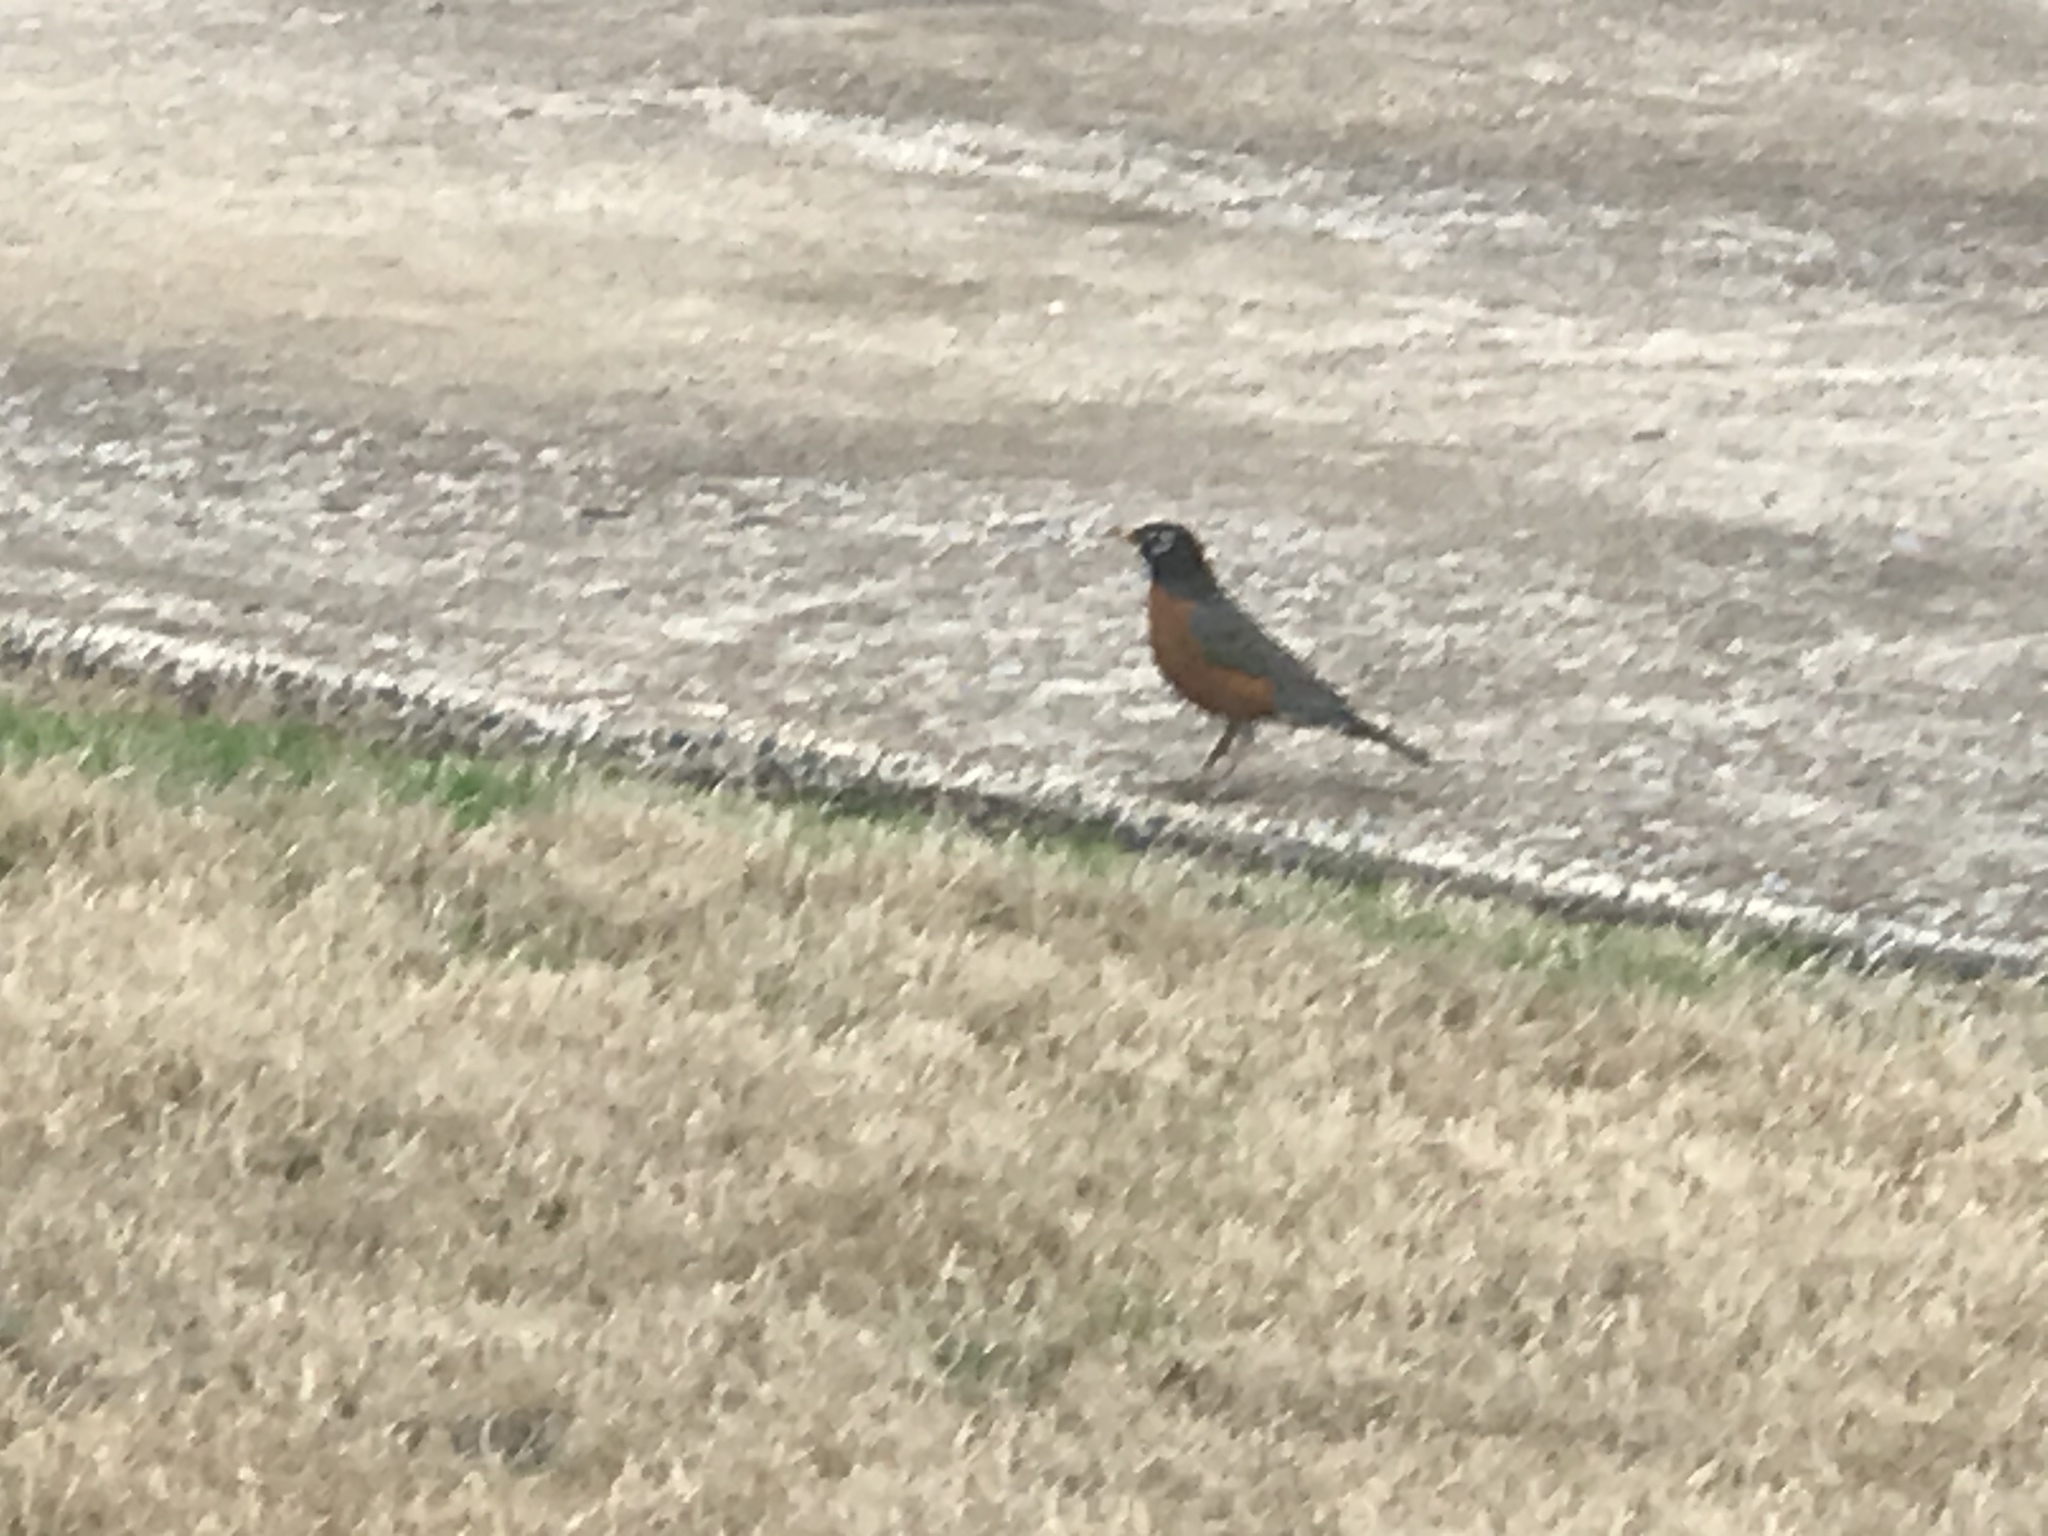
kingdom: Animalia
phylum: Chordata
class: Aves
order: Passeriformes
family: Turdidae
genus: Turdus
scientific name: Turdus migratorius
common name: American robin
